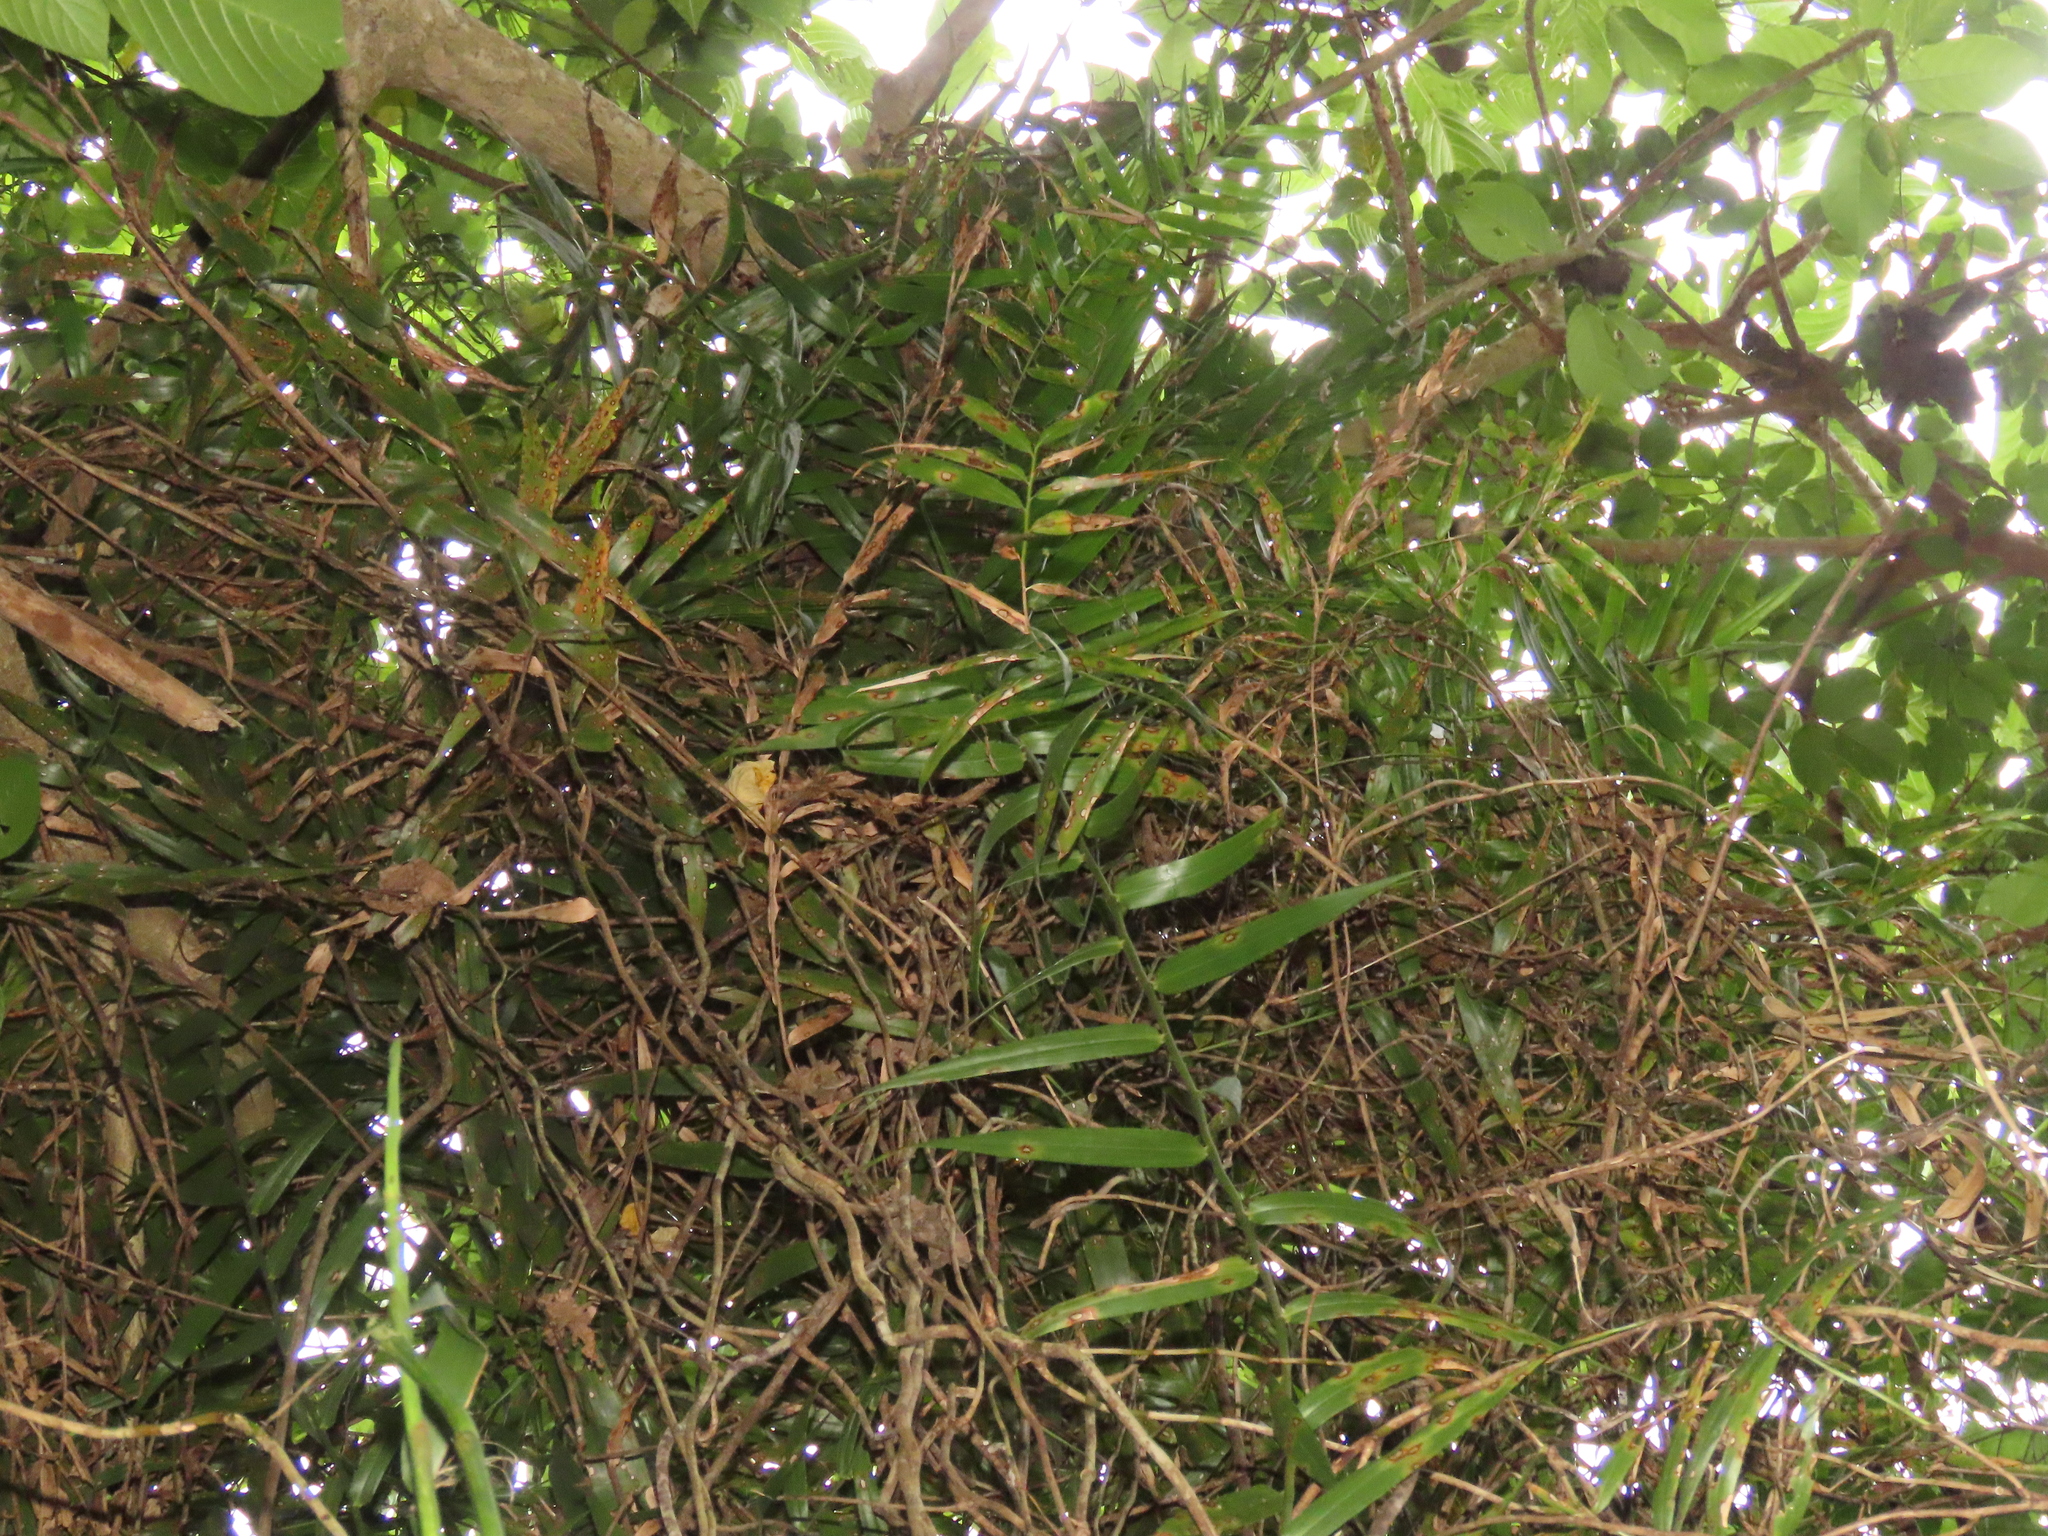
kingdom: Plantae
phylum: Tracheophyta
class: Liliopsida
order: Poales
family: Flagellariaceae
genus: Flagellaria
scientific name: Flagellaria indica
